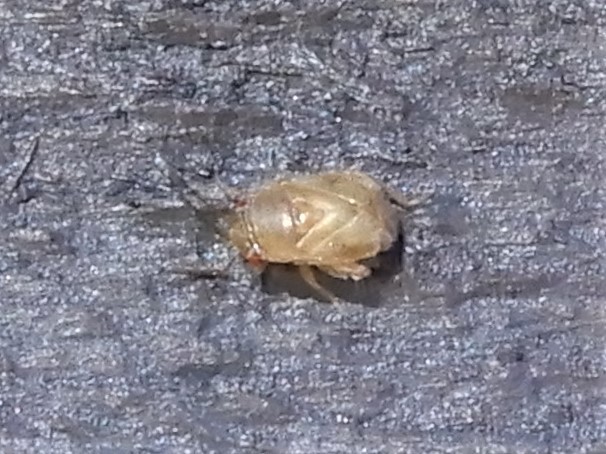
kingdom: Animalia
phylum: Arthropoda
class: Insecta
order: Hemiptera
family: Miridae
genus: Coridromius
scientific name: Coridromius chenopoderis
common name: Plant bug
